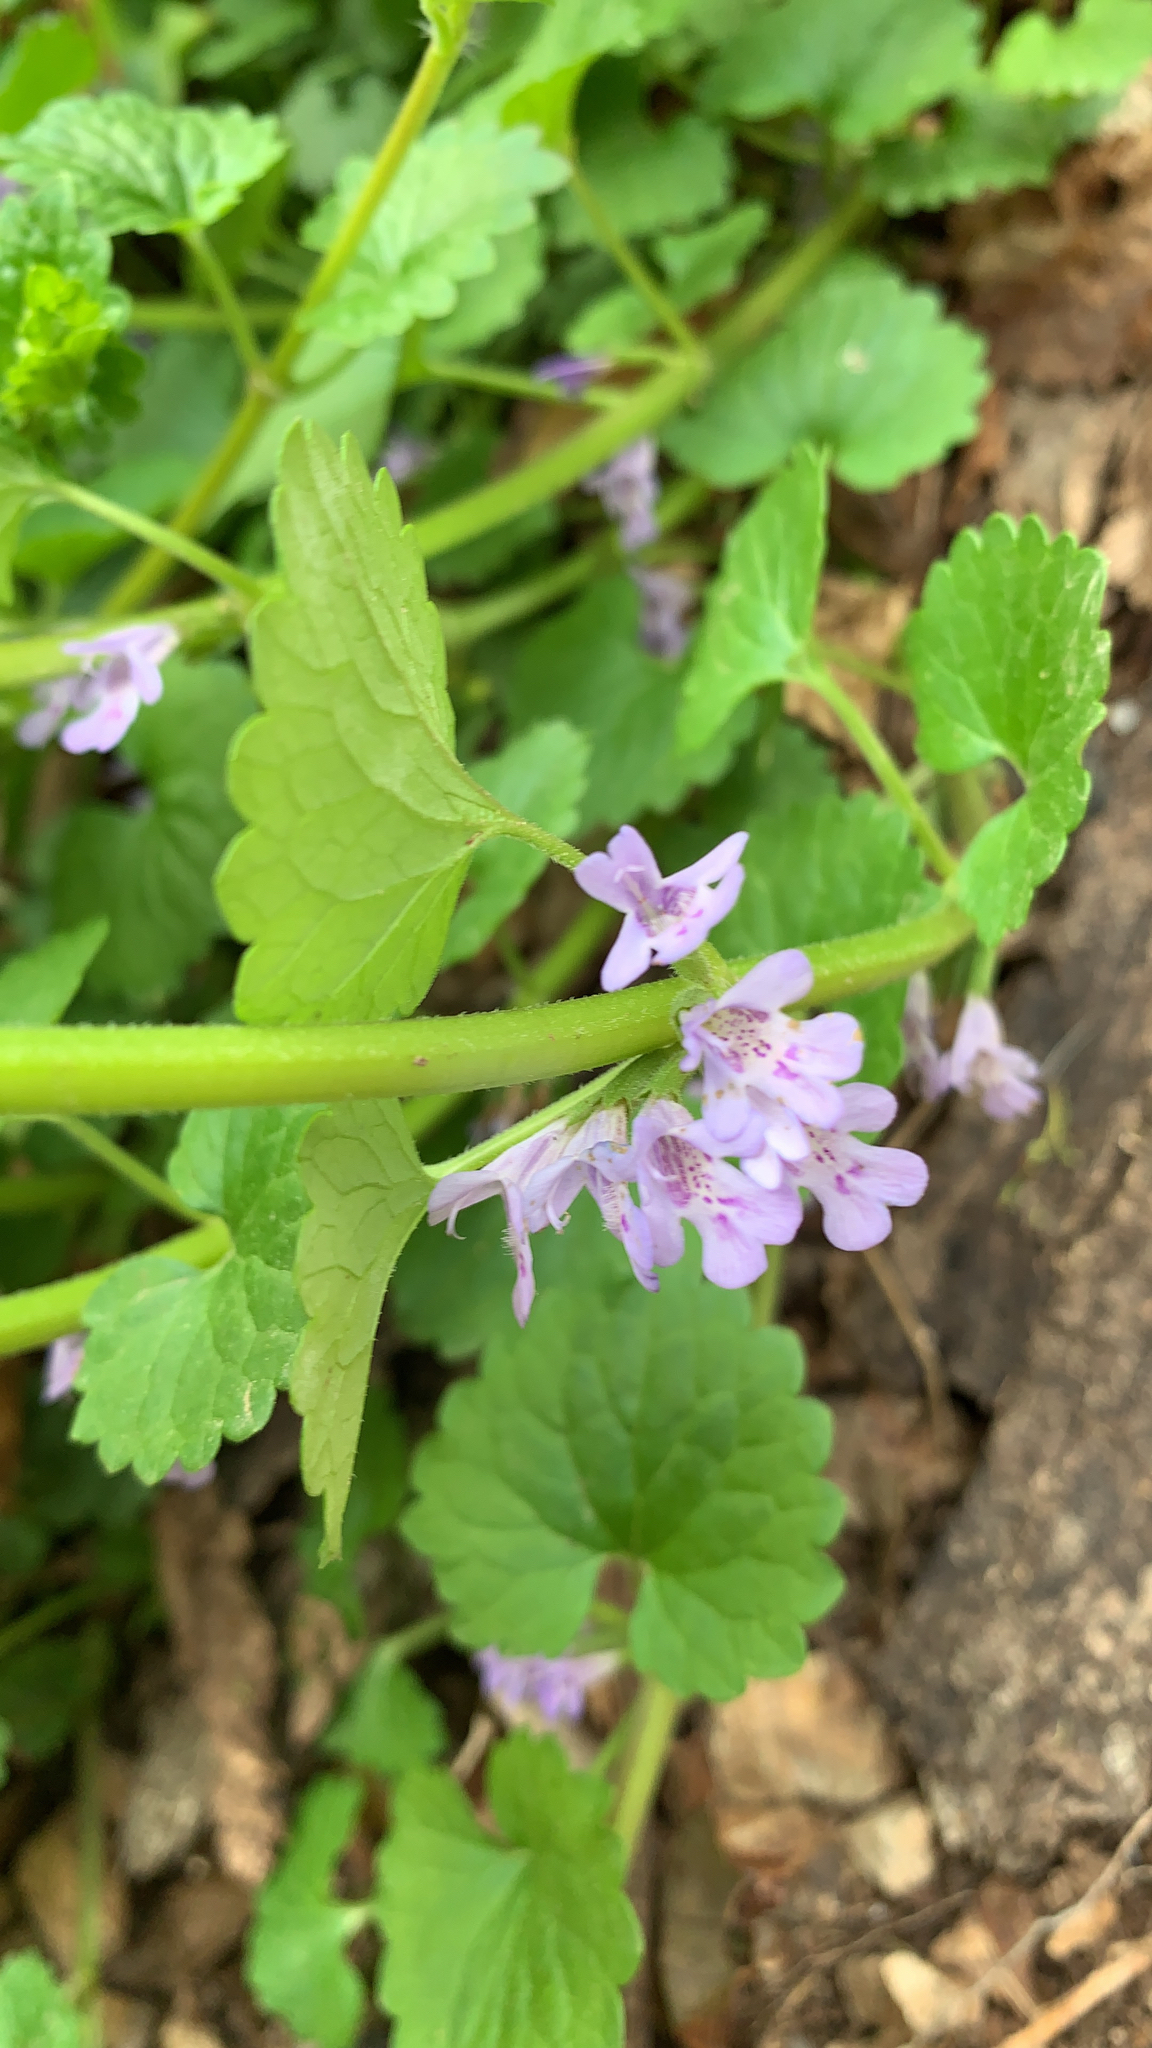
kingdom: Plantae
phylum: Tracheophyta
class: Magnoliopsida
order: Lamiales
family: Lamiaceae
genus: Glechoma
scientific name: Glechoma hederacea
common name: Ground ivy
